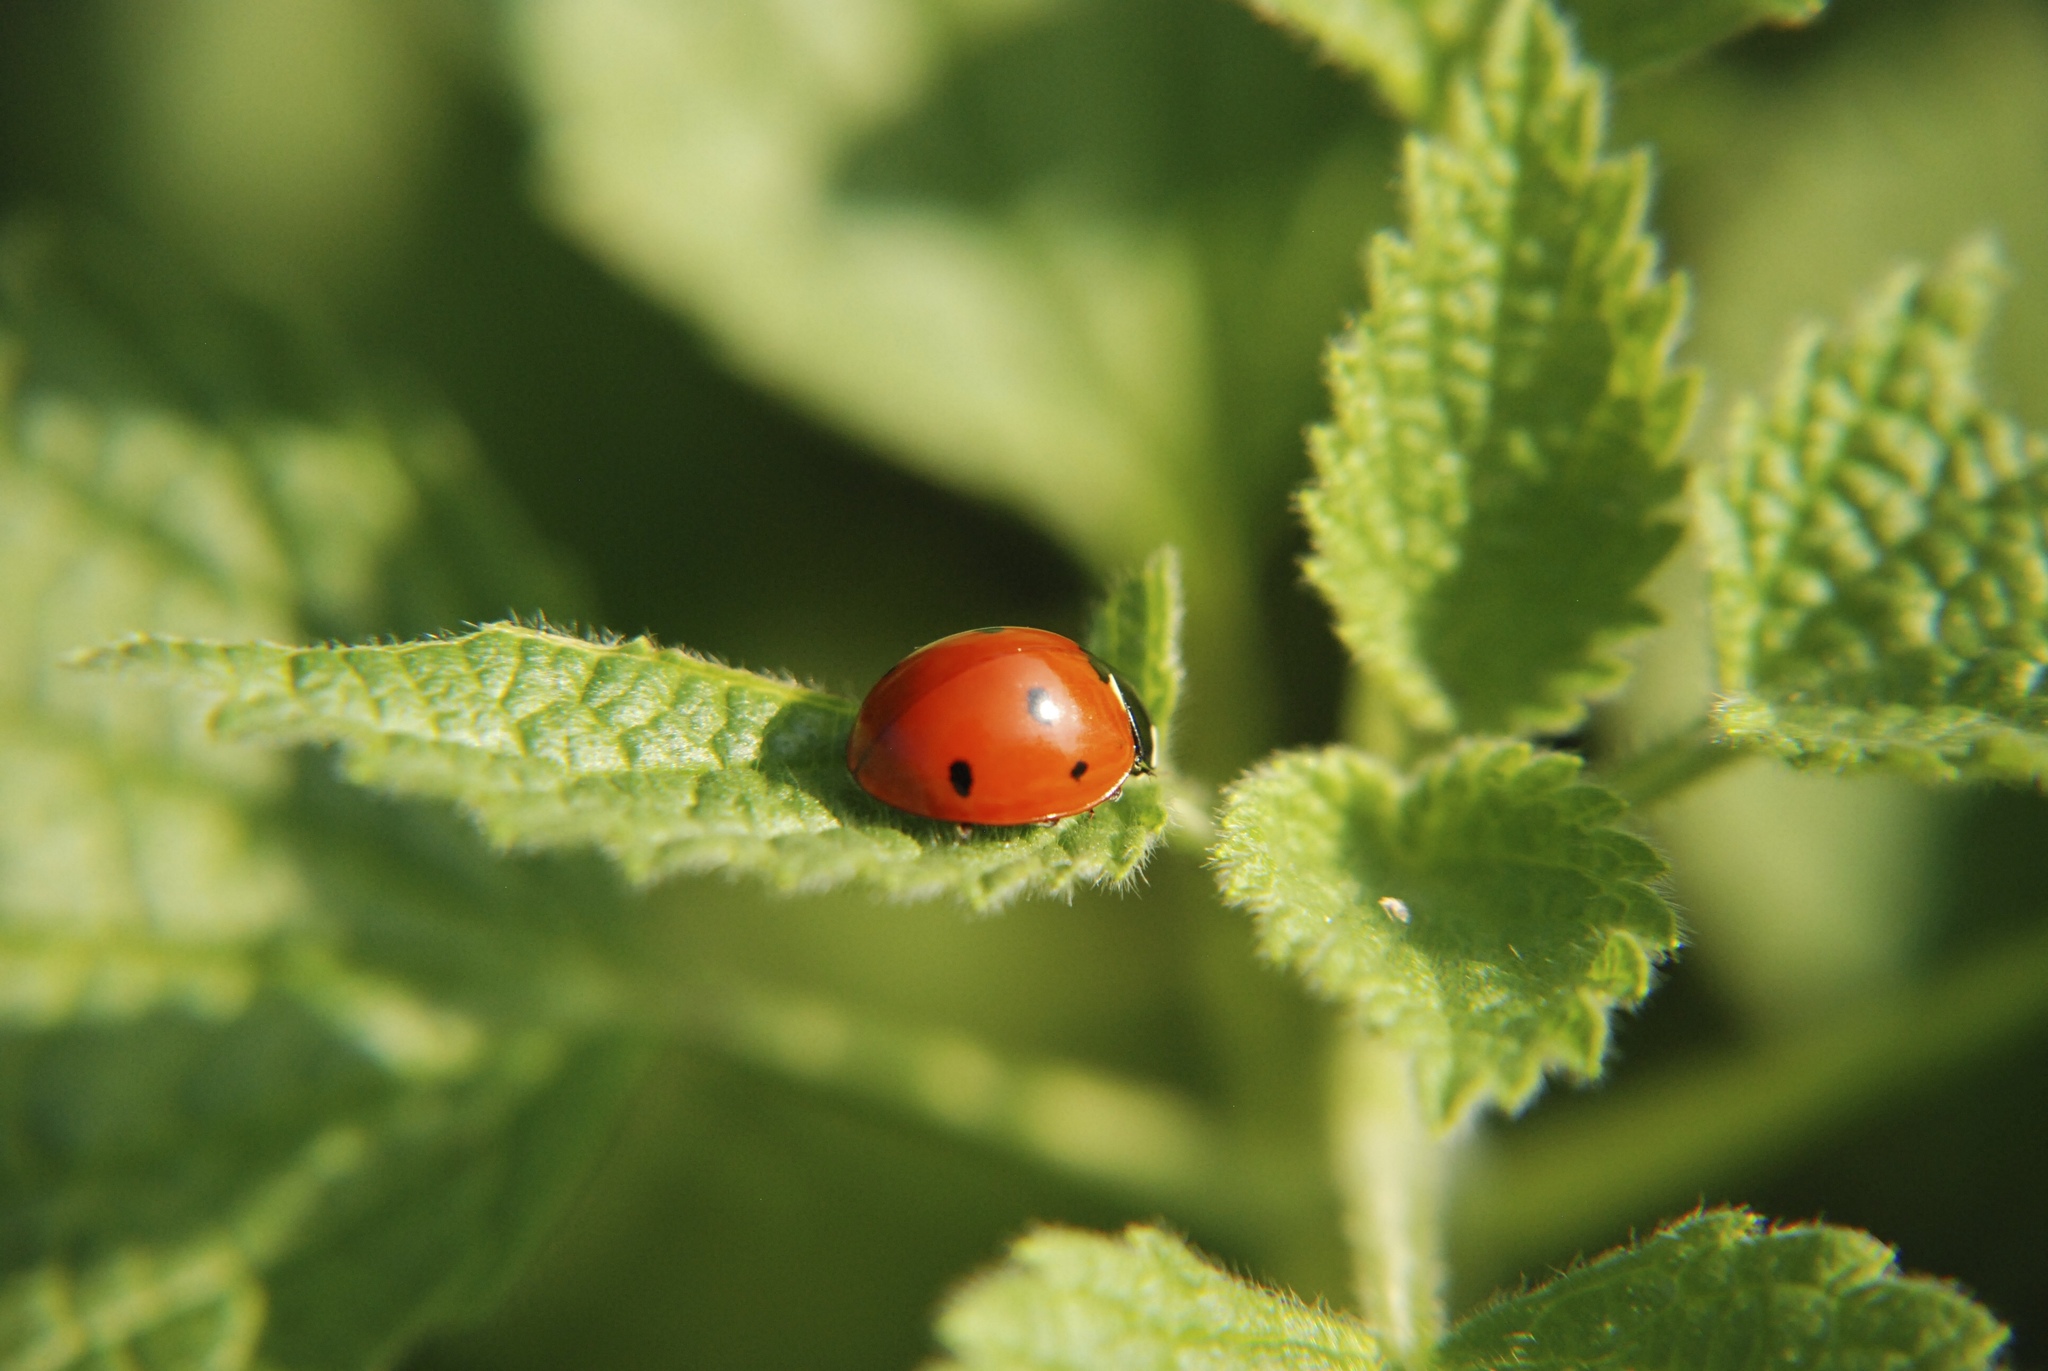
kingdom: Animalia
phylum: Arthropoda
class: Insecta
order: Coleoptera
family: Coccinellidae
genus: Coccinella
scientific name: Coccinella septempunctata
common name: Sevenspotted lady beetle
